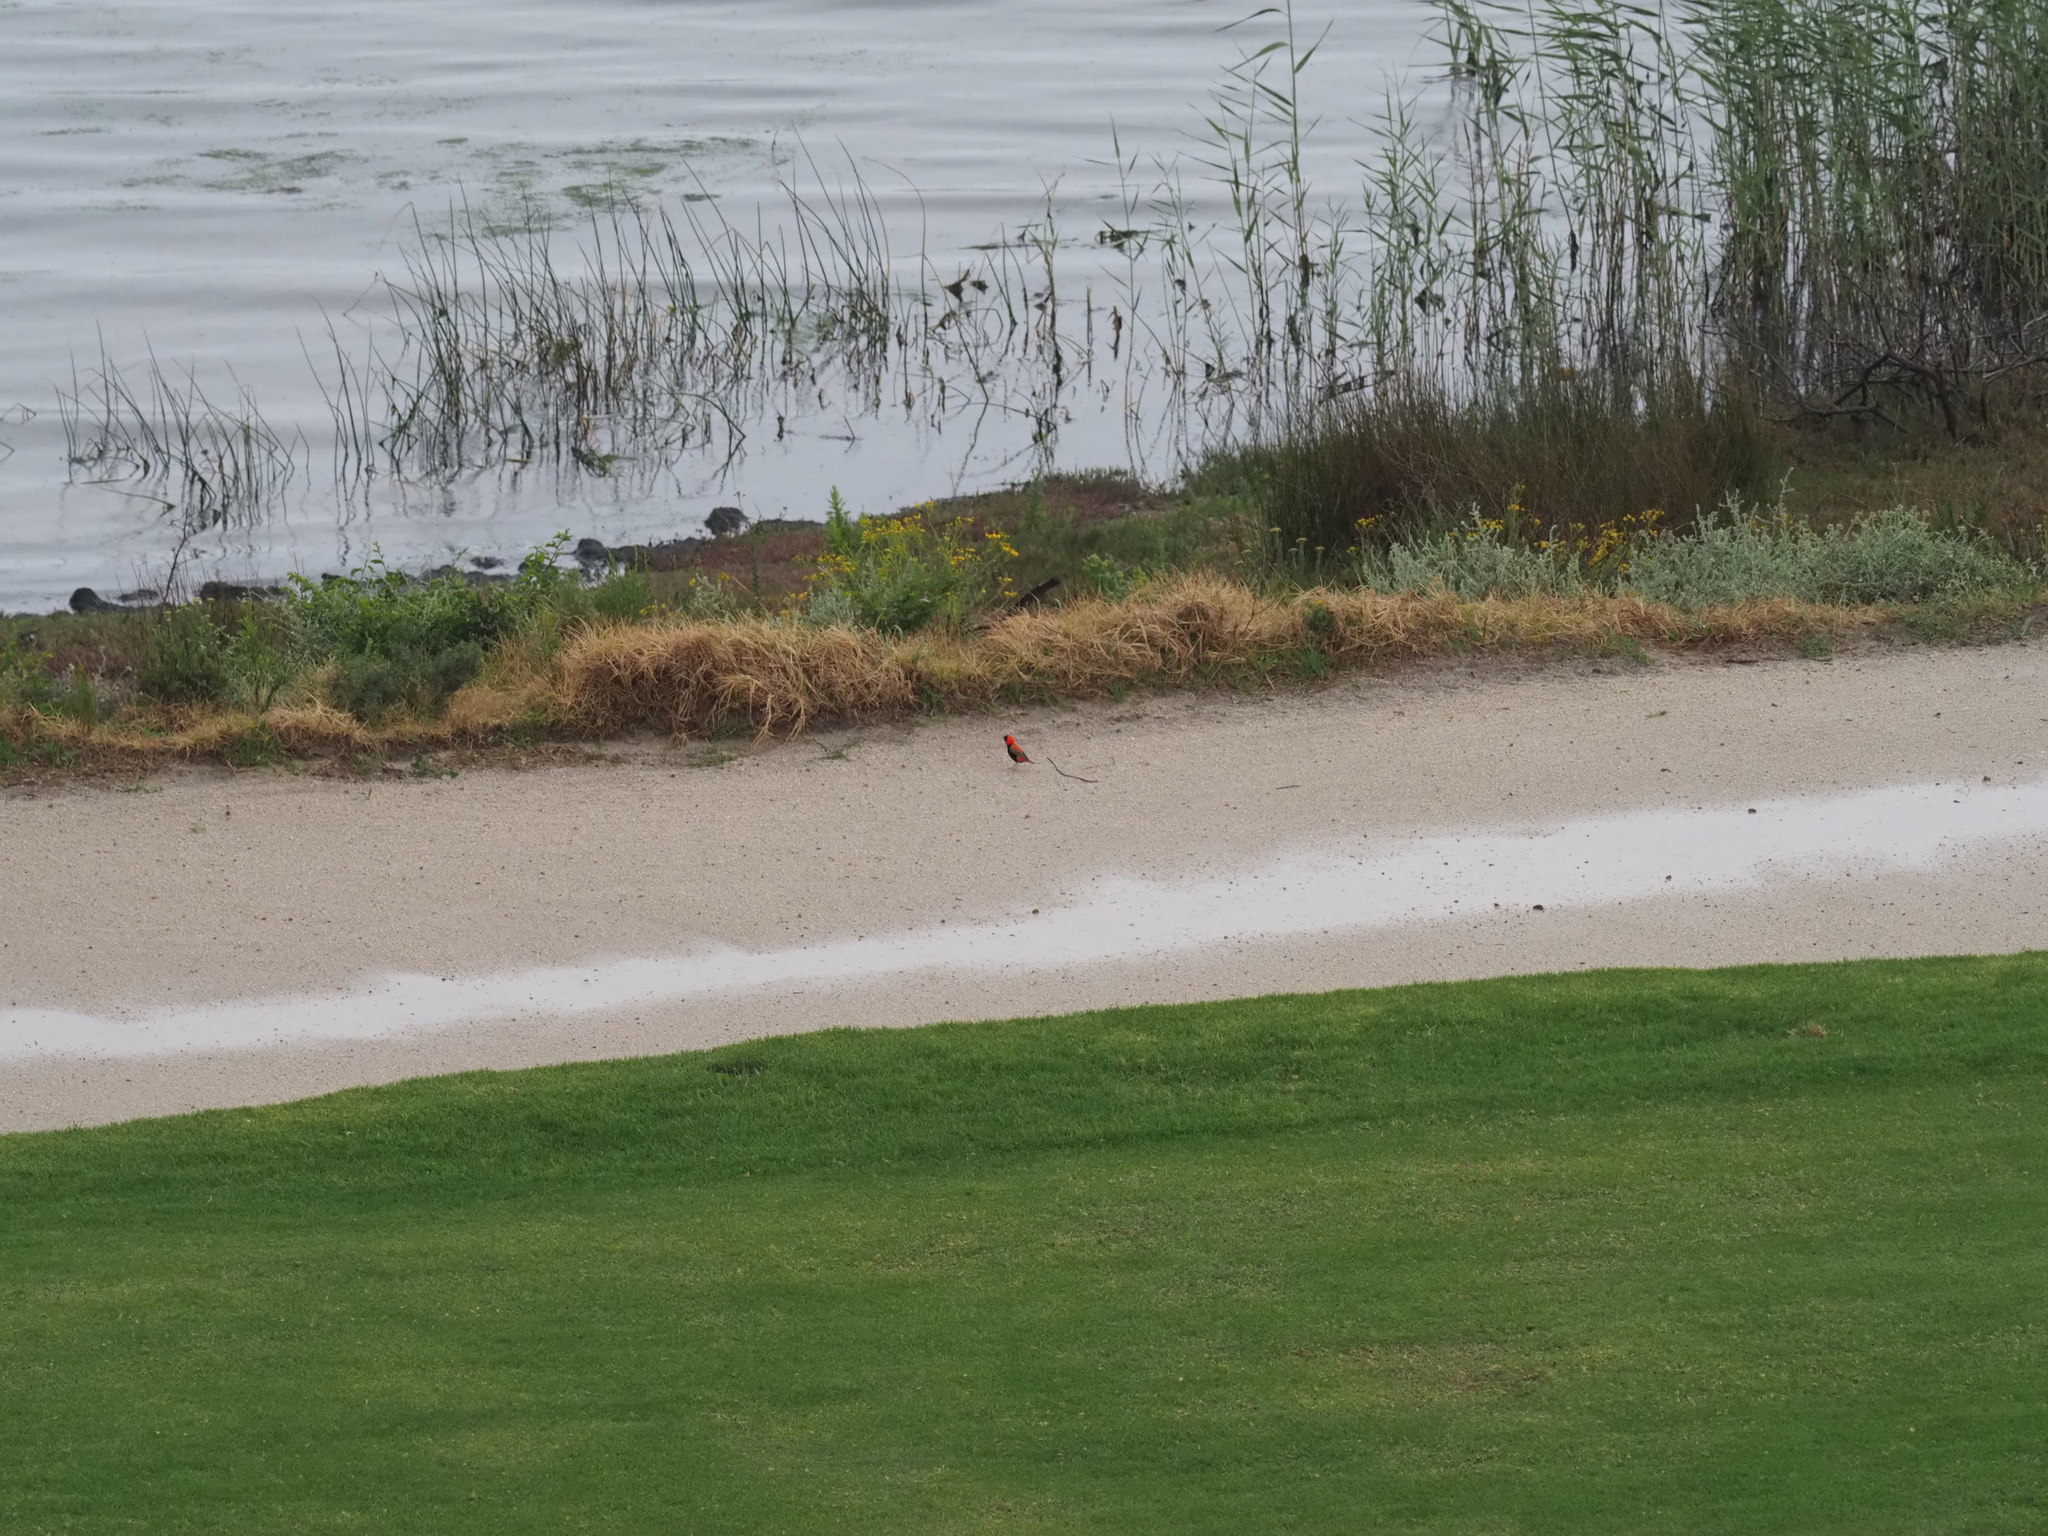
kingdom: Animalia
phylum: Chordata
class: Aves
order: Passeriformes
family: Ploceidae
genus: Euplectes
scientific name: Euplectes orix
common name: Southern red bishop
